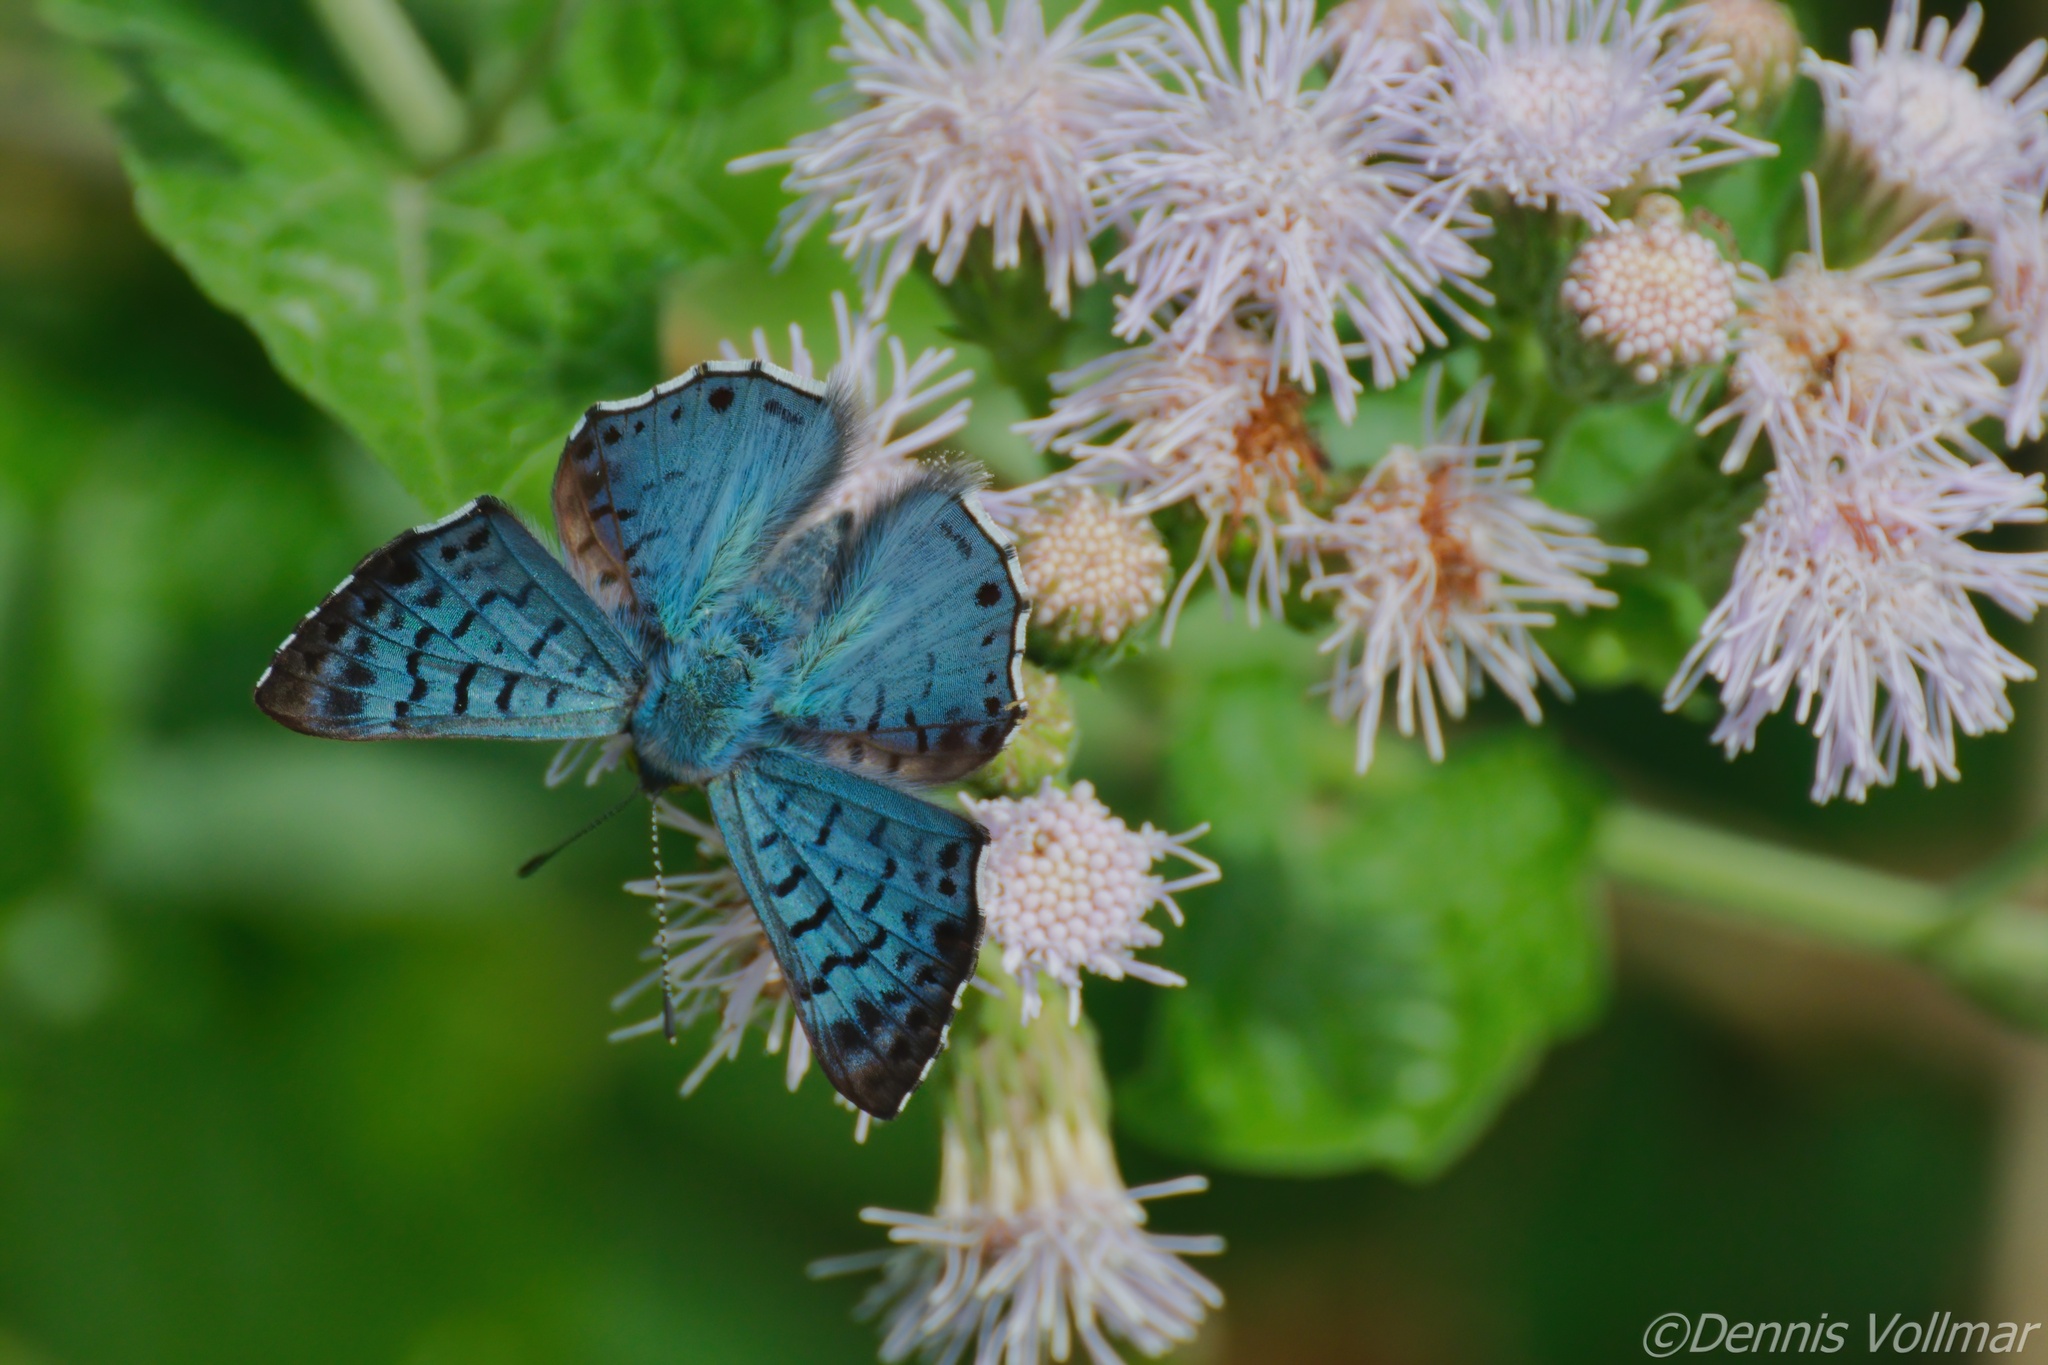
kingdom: Animalia
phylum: Arthropoda
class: Insecta
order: Lepidoptera
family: Riodinidae
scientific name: Riodinidae
